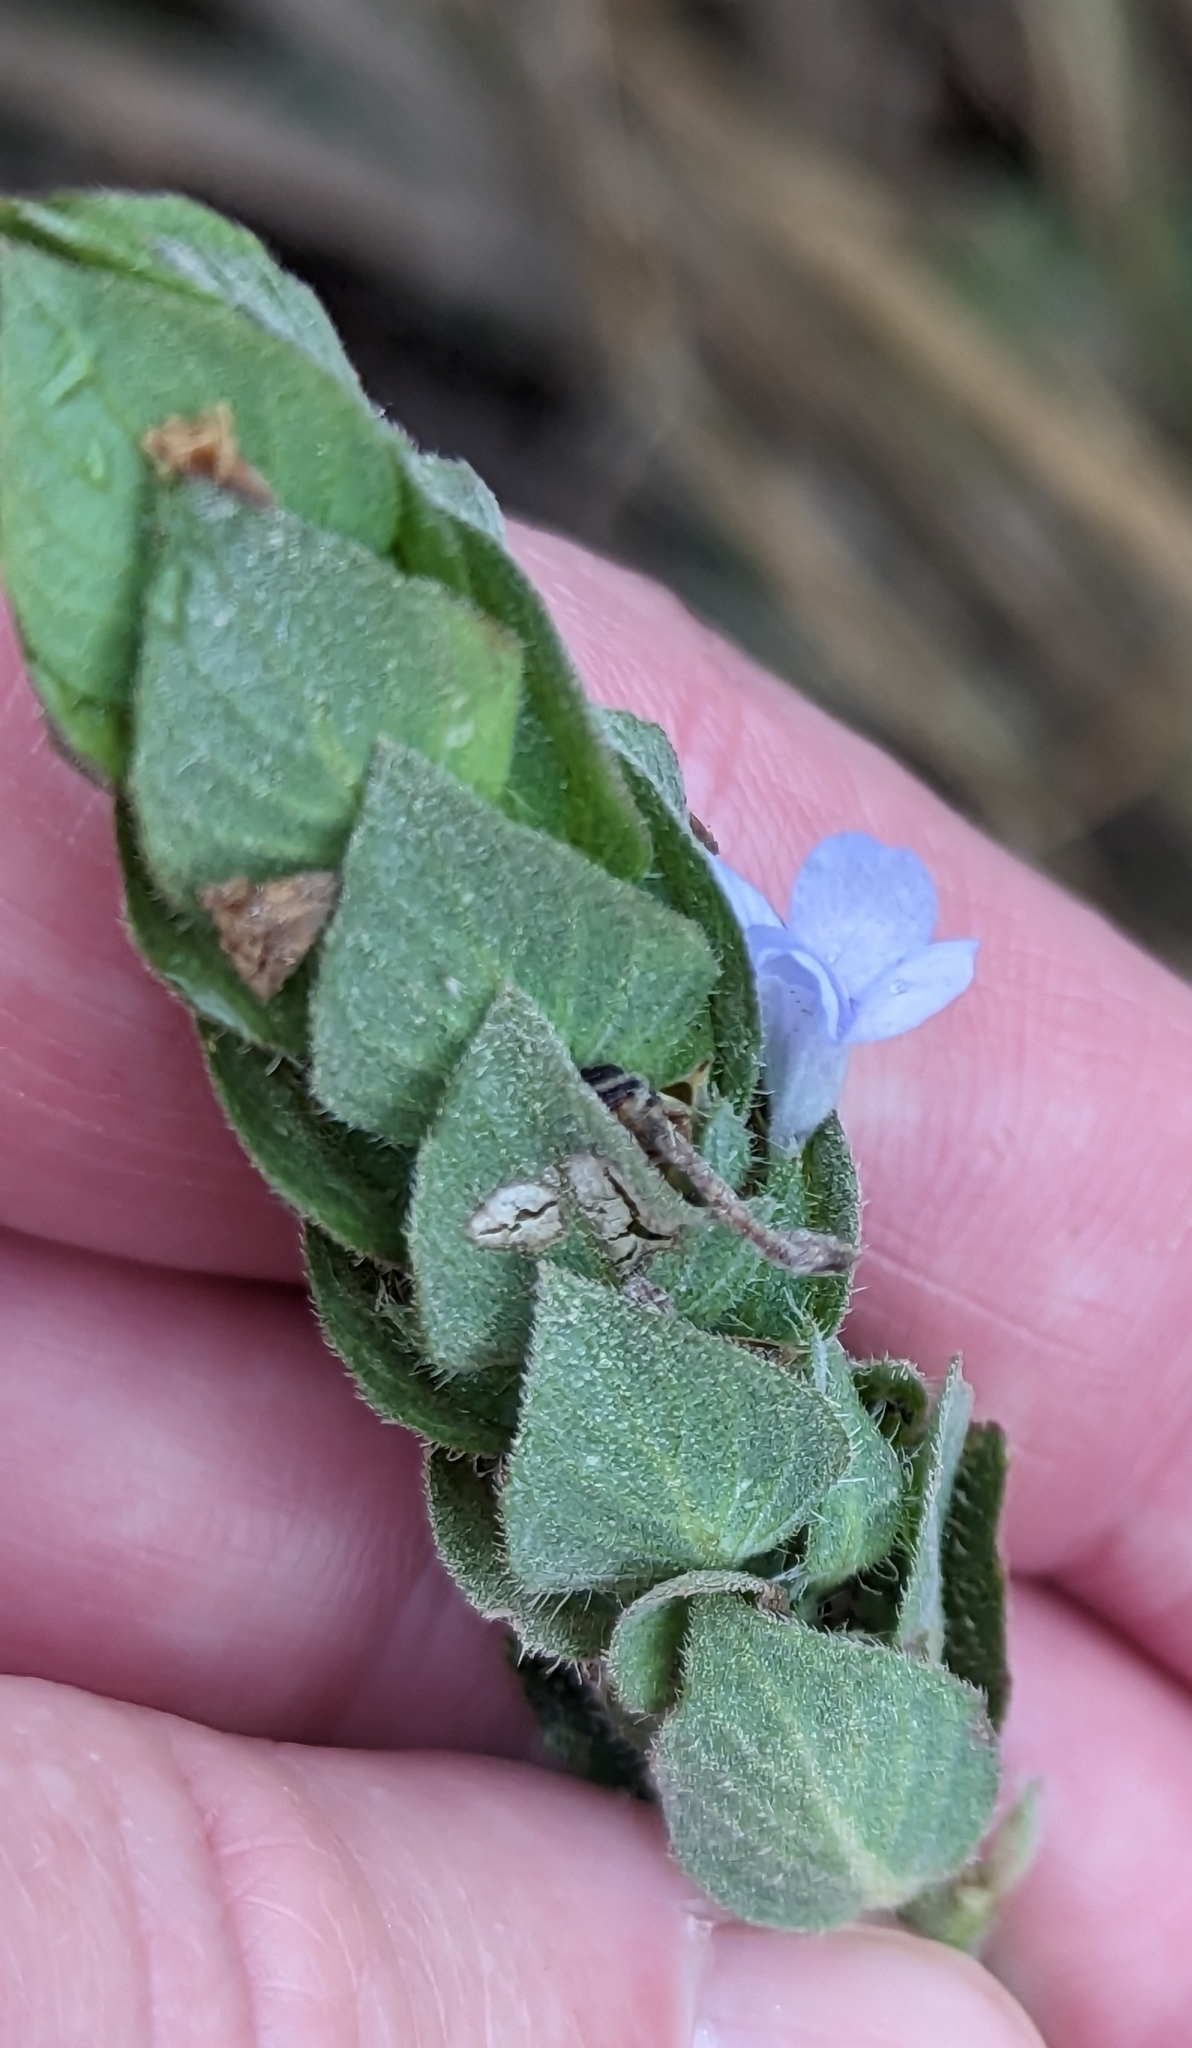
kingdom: Plantae
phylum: Tracheophyta
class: Magnoliopsida
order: Lamiales
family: Acanthaceae
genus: Ruellia
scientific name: Ruellia blechum
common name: Browne's blechum
